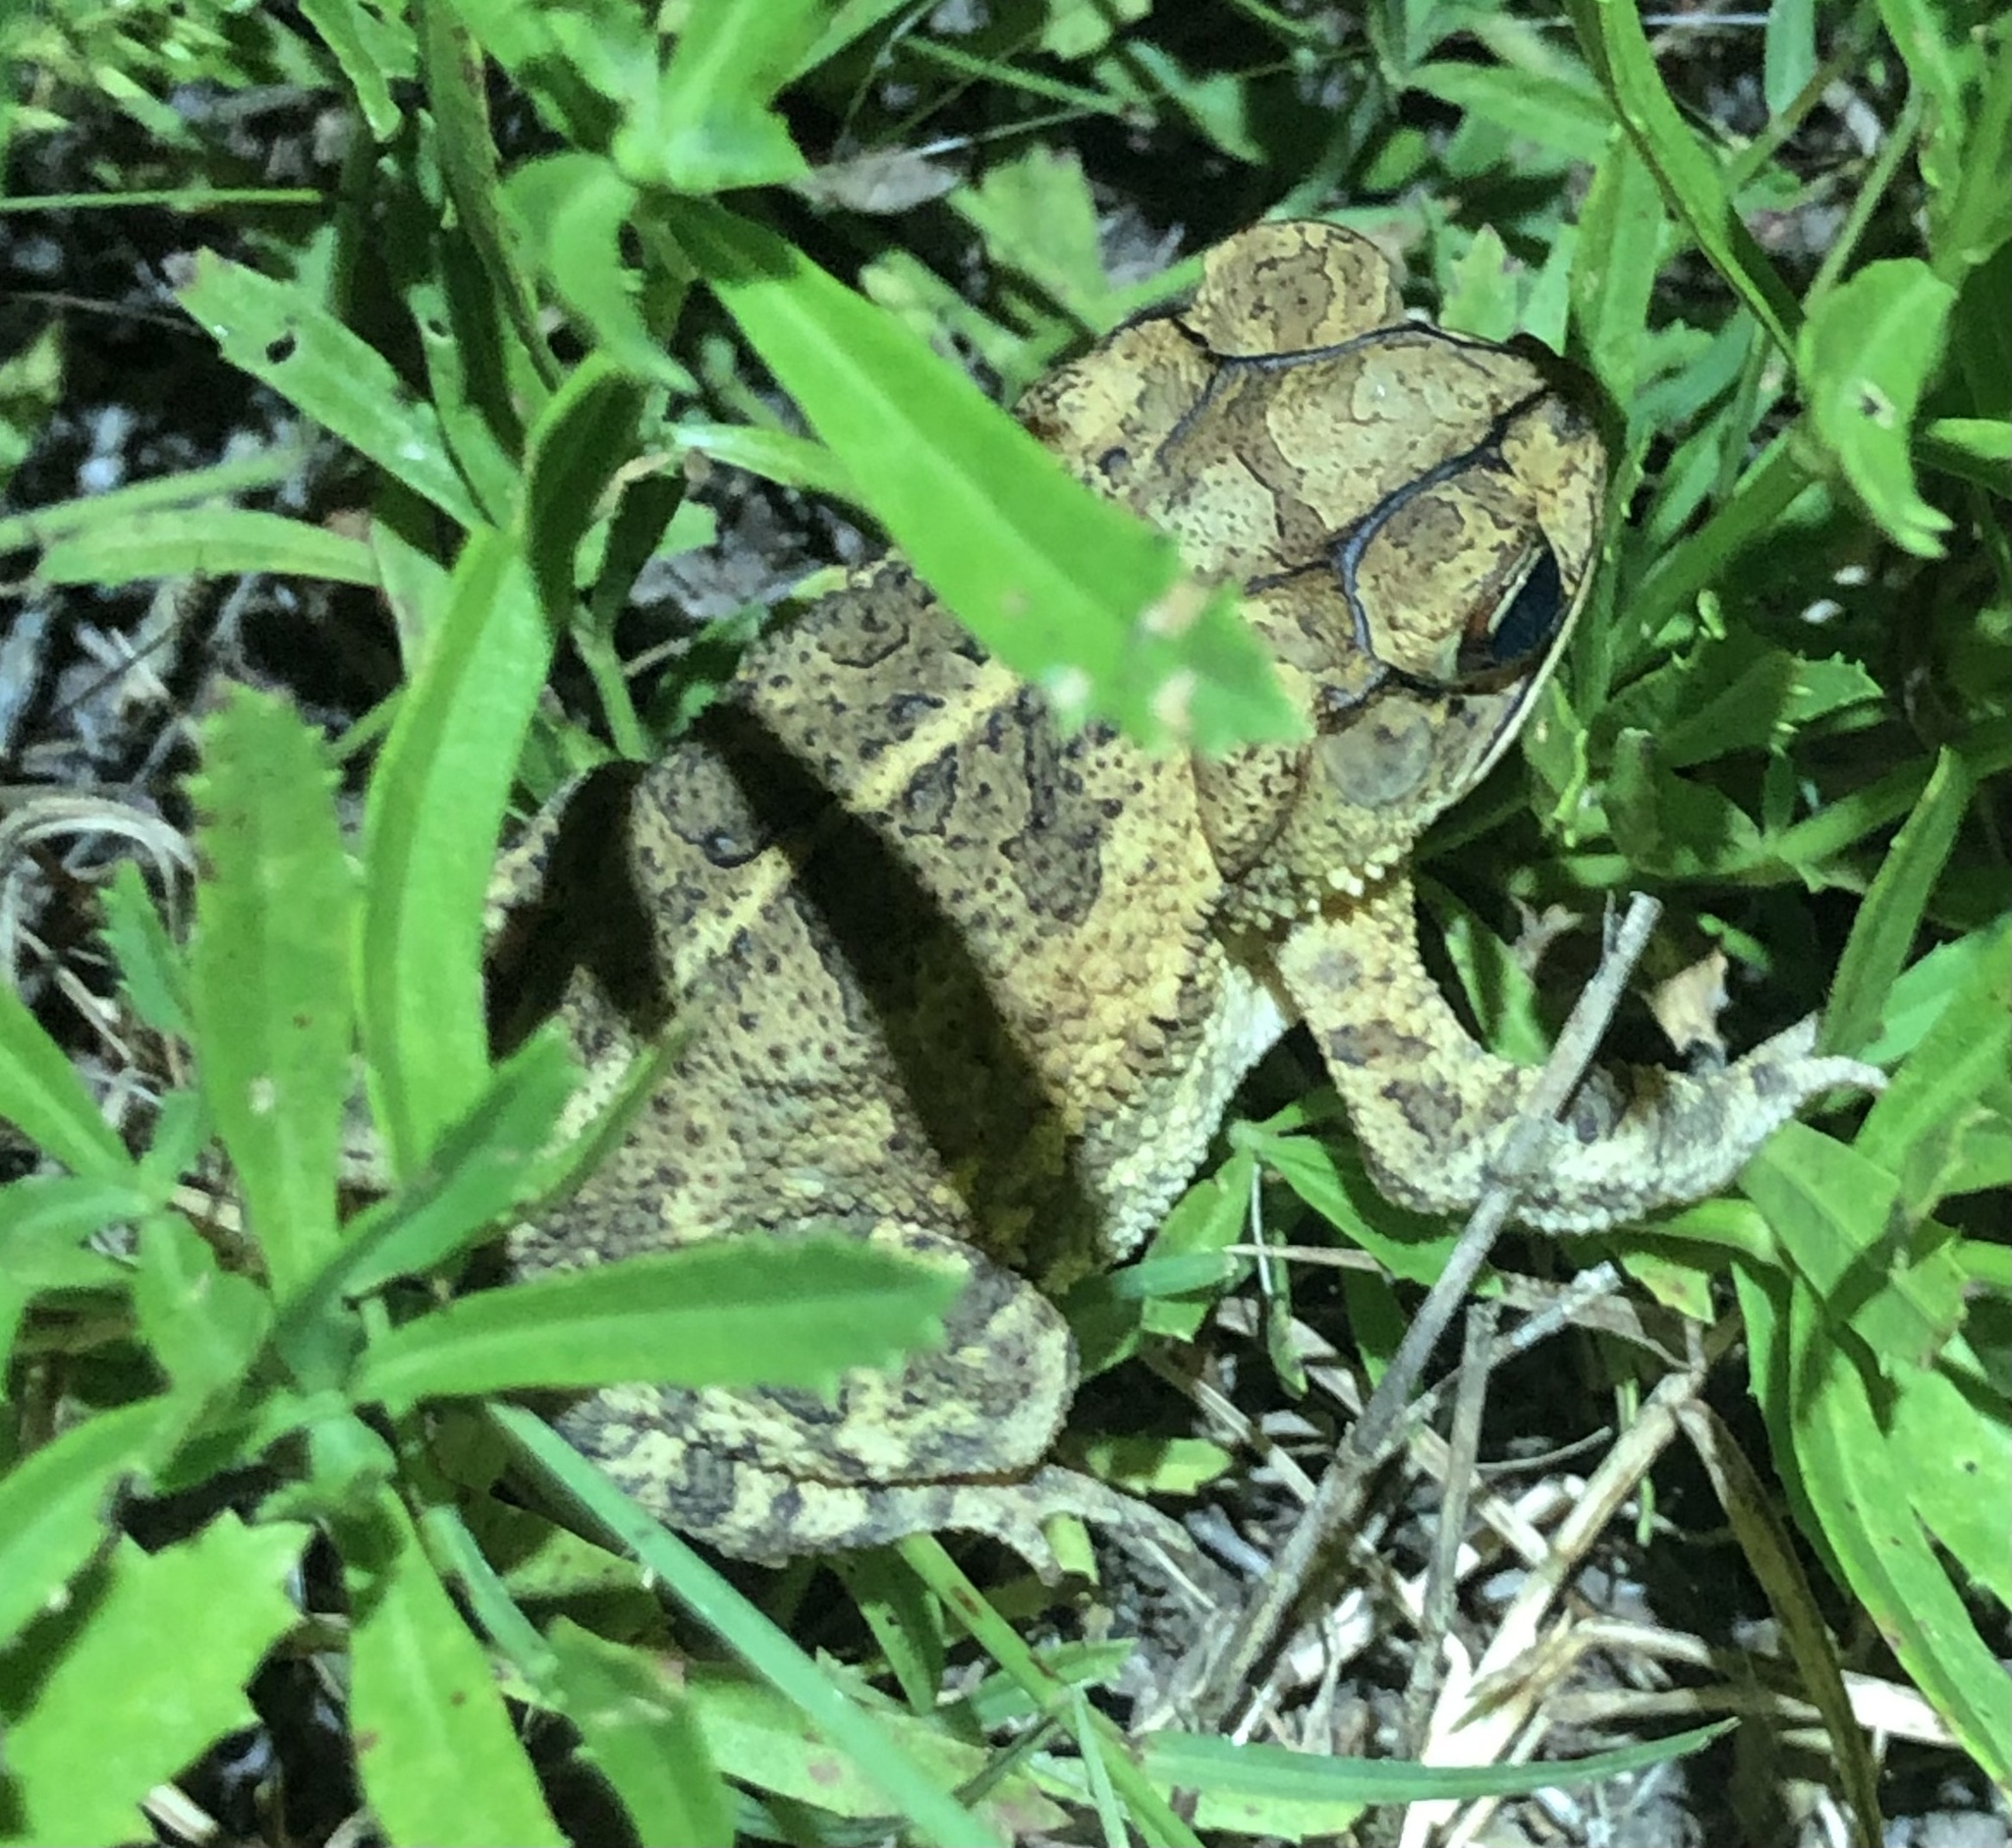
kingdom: Animalia
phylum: Chordata
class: Amphibia
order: Anura
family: Bufonidae
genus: Incilius
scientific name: Incilius nebulifer
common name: Gulf coast toad
